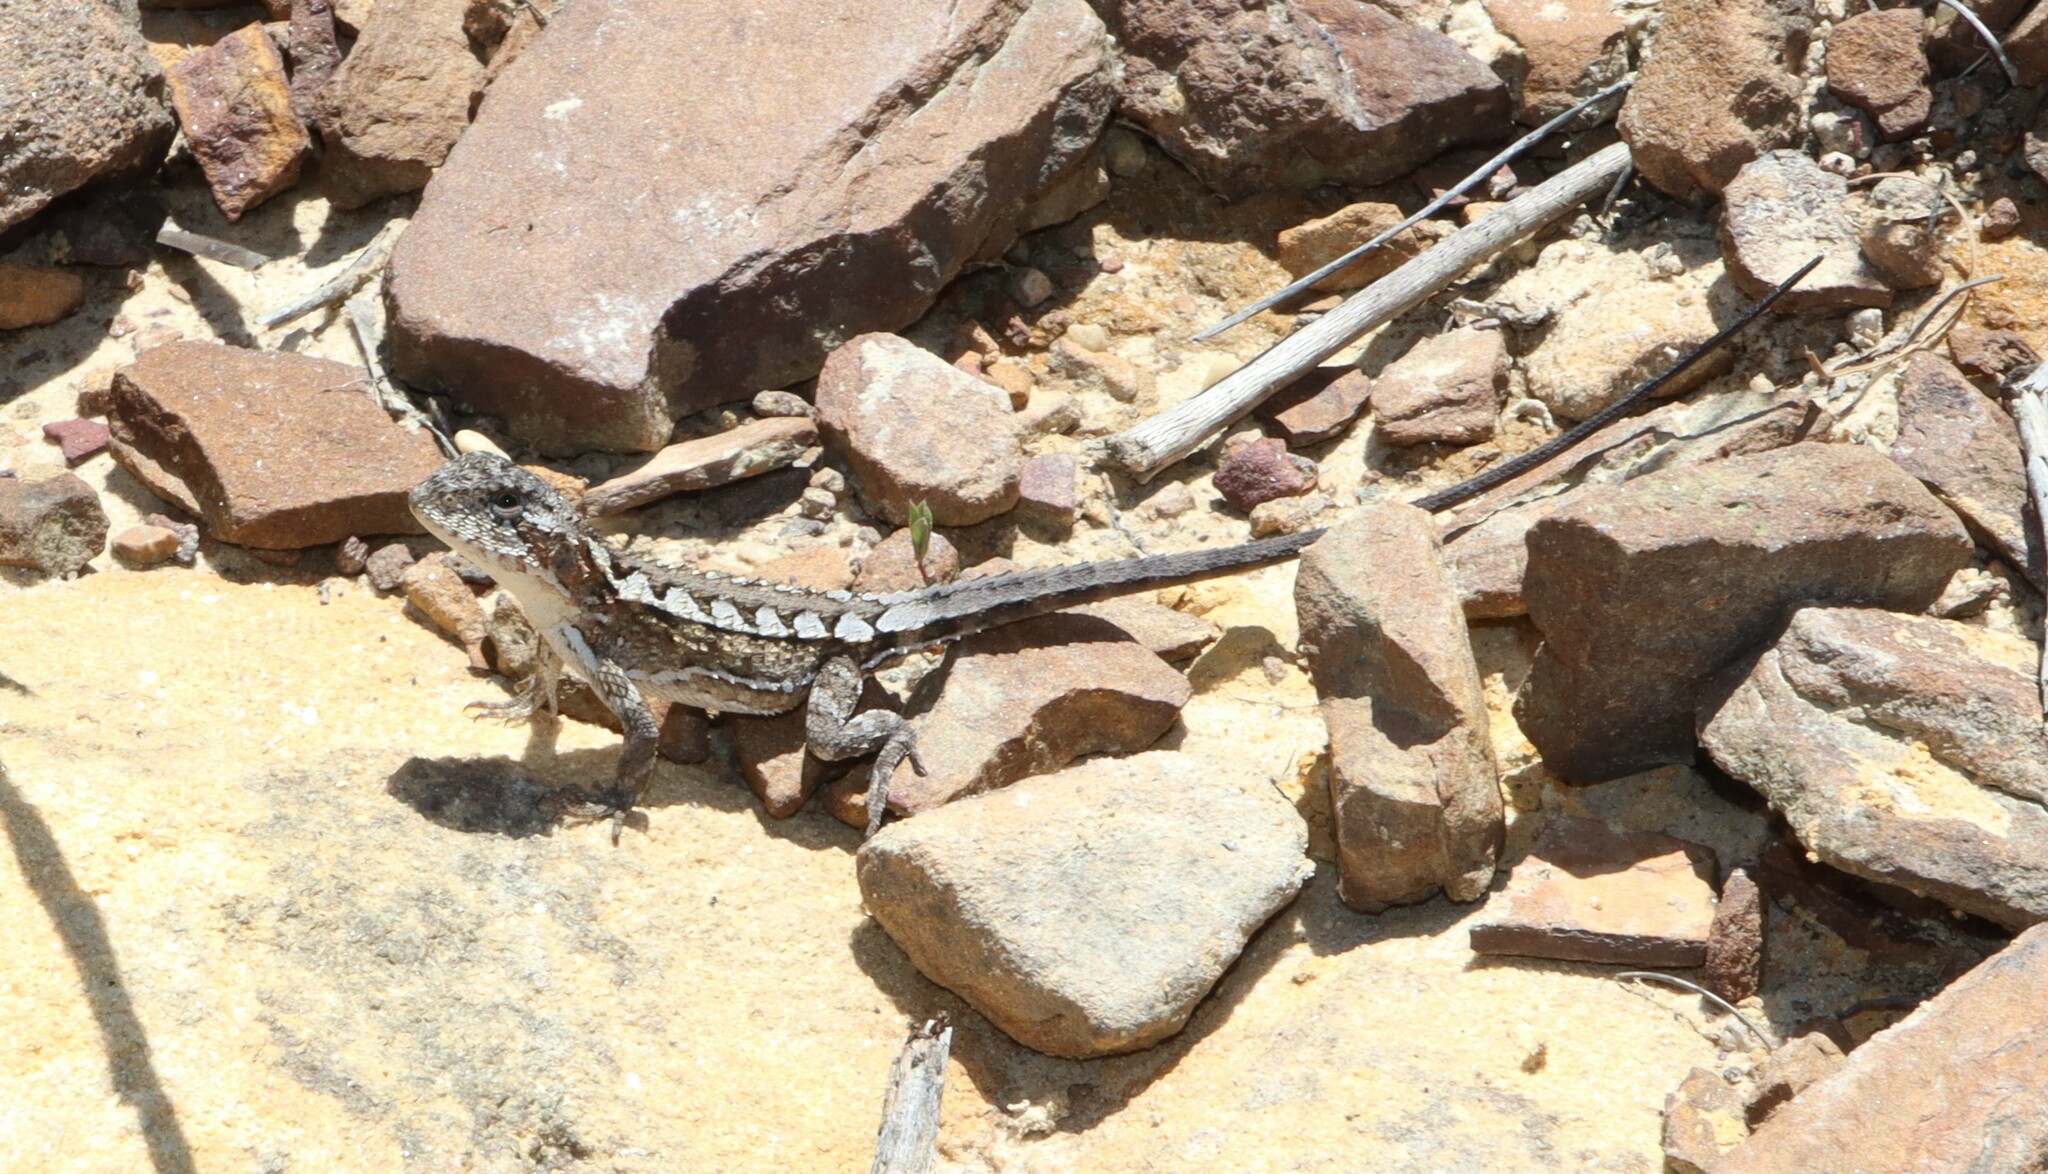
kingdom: Animalia
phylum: Chordata
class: Squamata
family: Agamidae
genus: Rankinia
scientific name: Rankinia diemensis
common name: Mountain dragon
